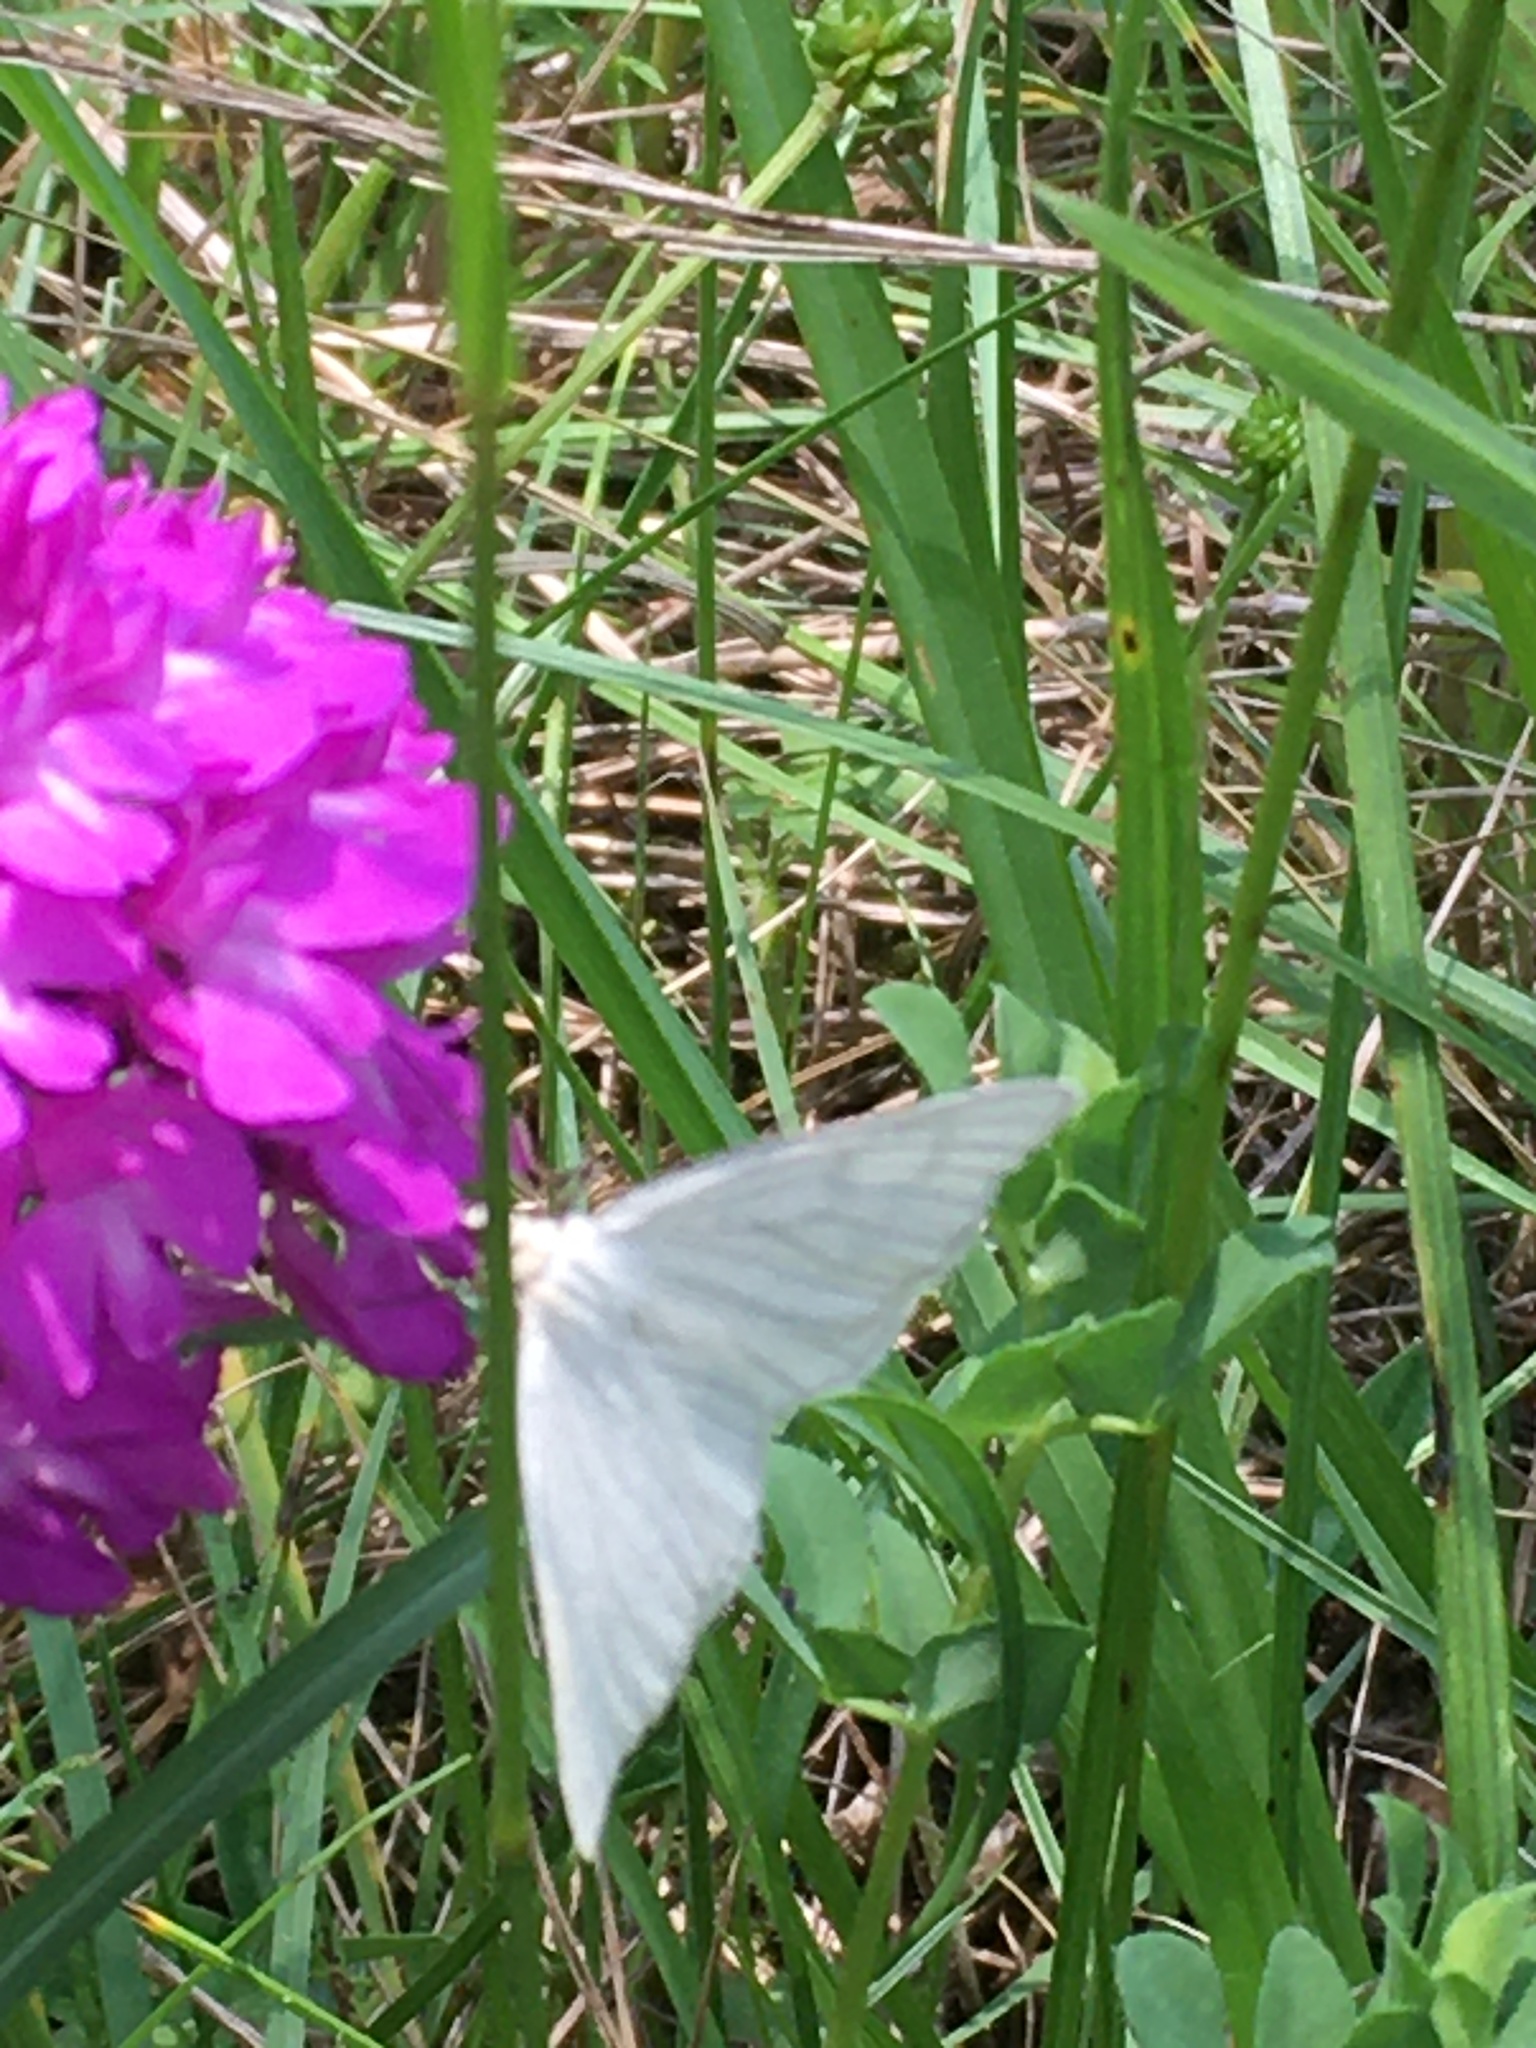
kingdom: Animalia
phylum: Arthropoda
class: Insecta
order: Lepidoptera
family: Geometridae
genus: Siona
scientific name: Siona lineata
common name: Black-veined moth
